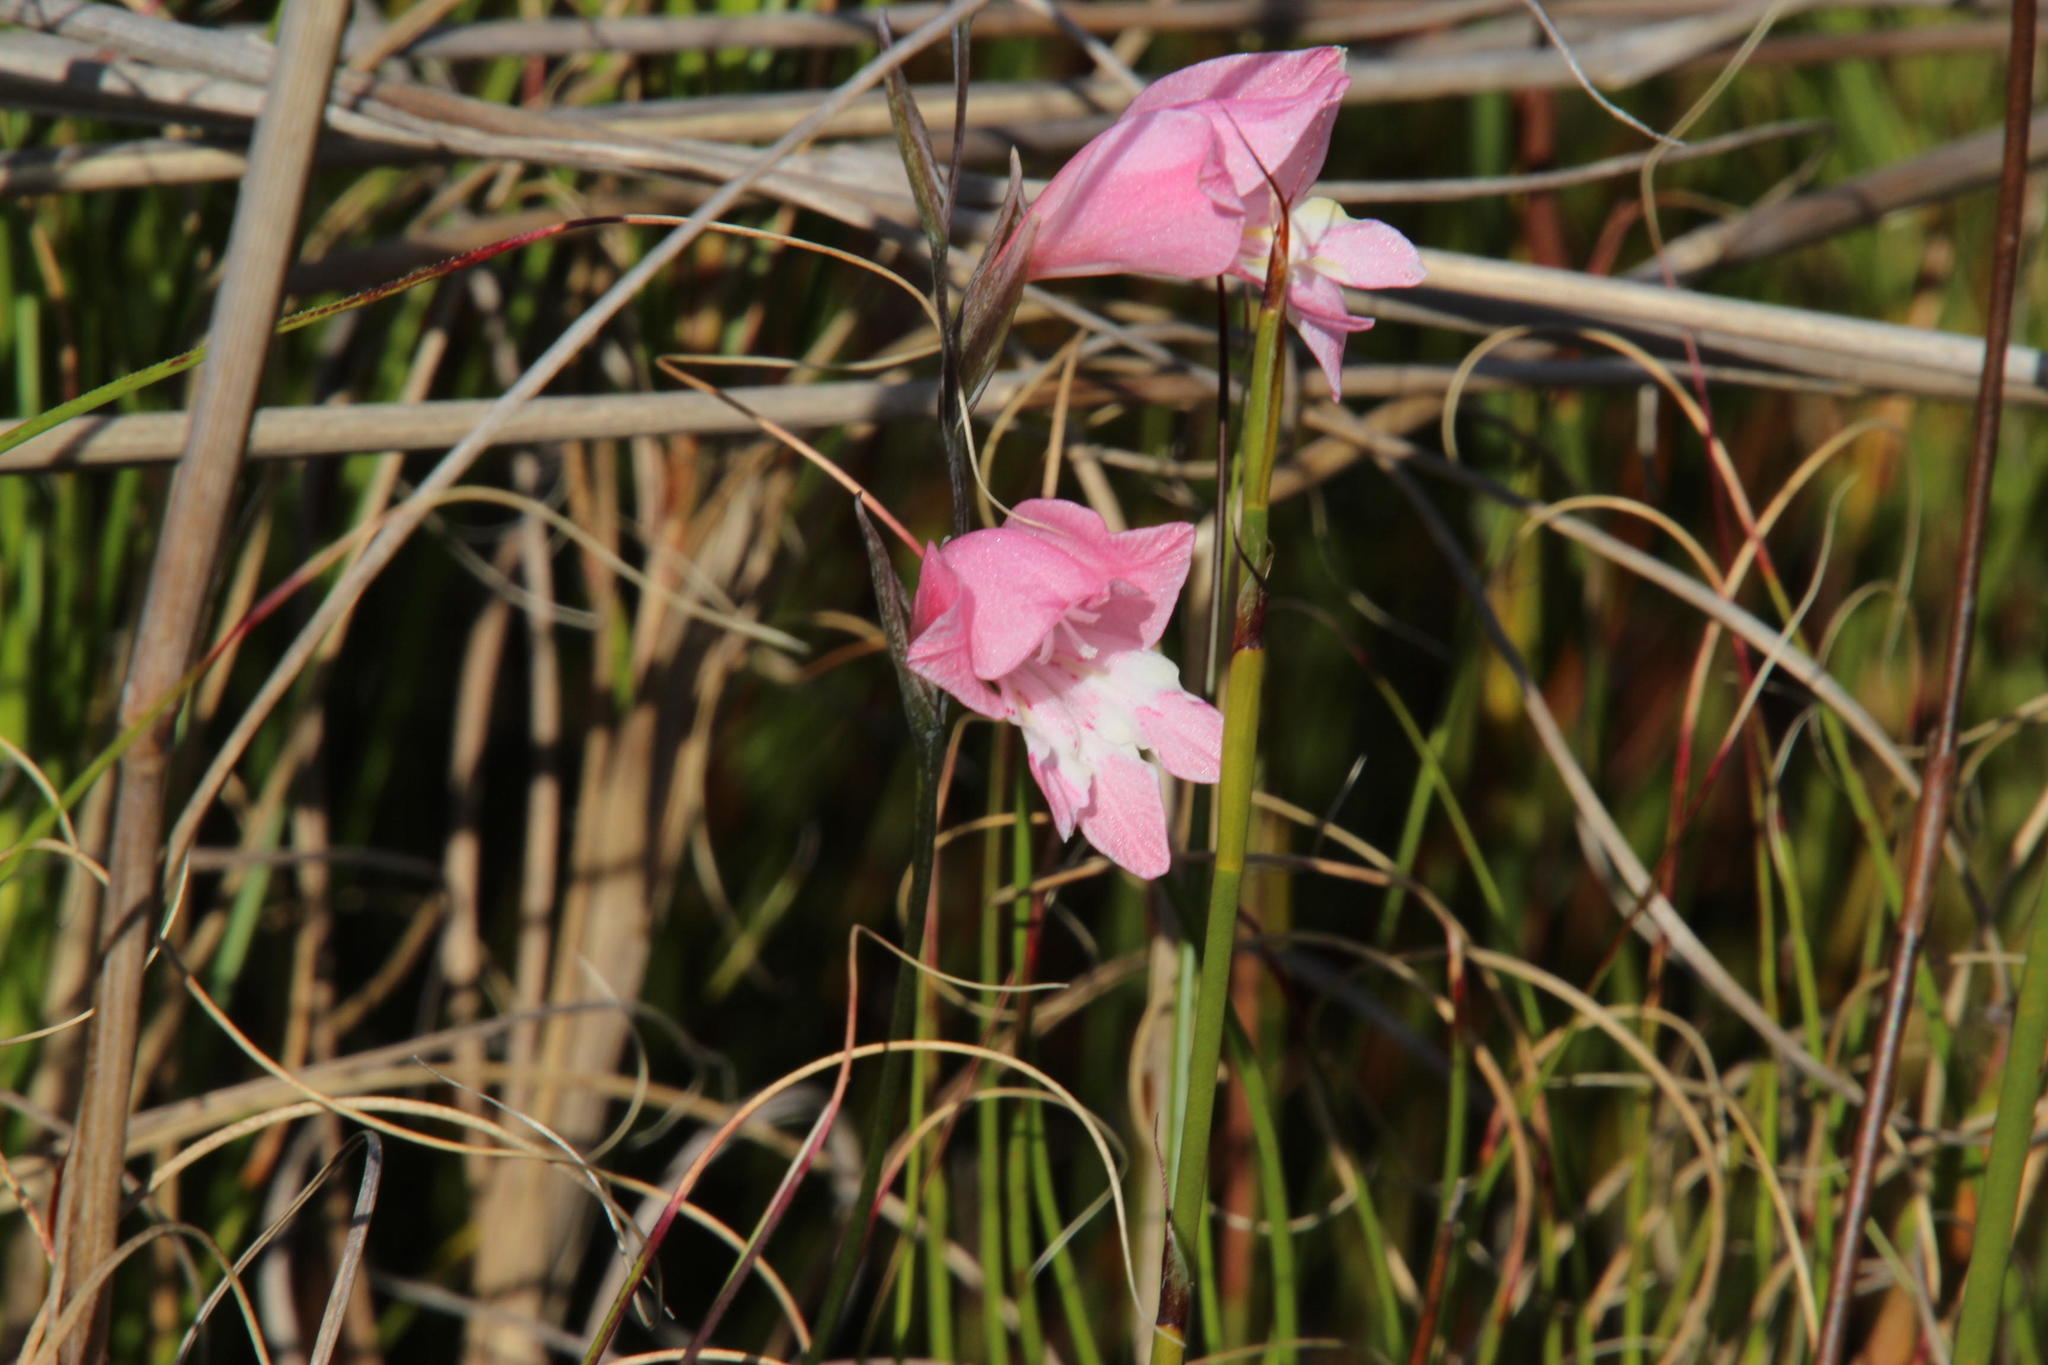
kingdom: Plantae
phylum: Tracheophyta
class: Liliopsida
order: Asparagales
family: Iridaceae
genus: Gladiolus
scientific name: Gladiolus brevifolius
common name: March pypie
